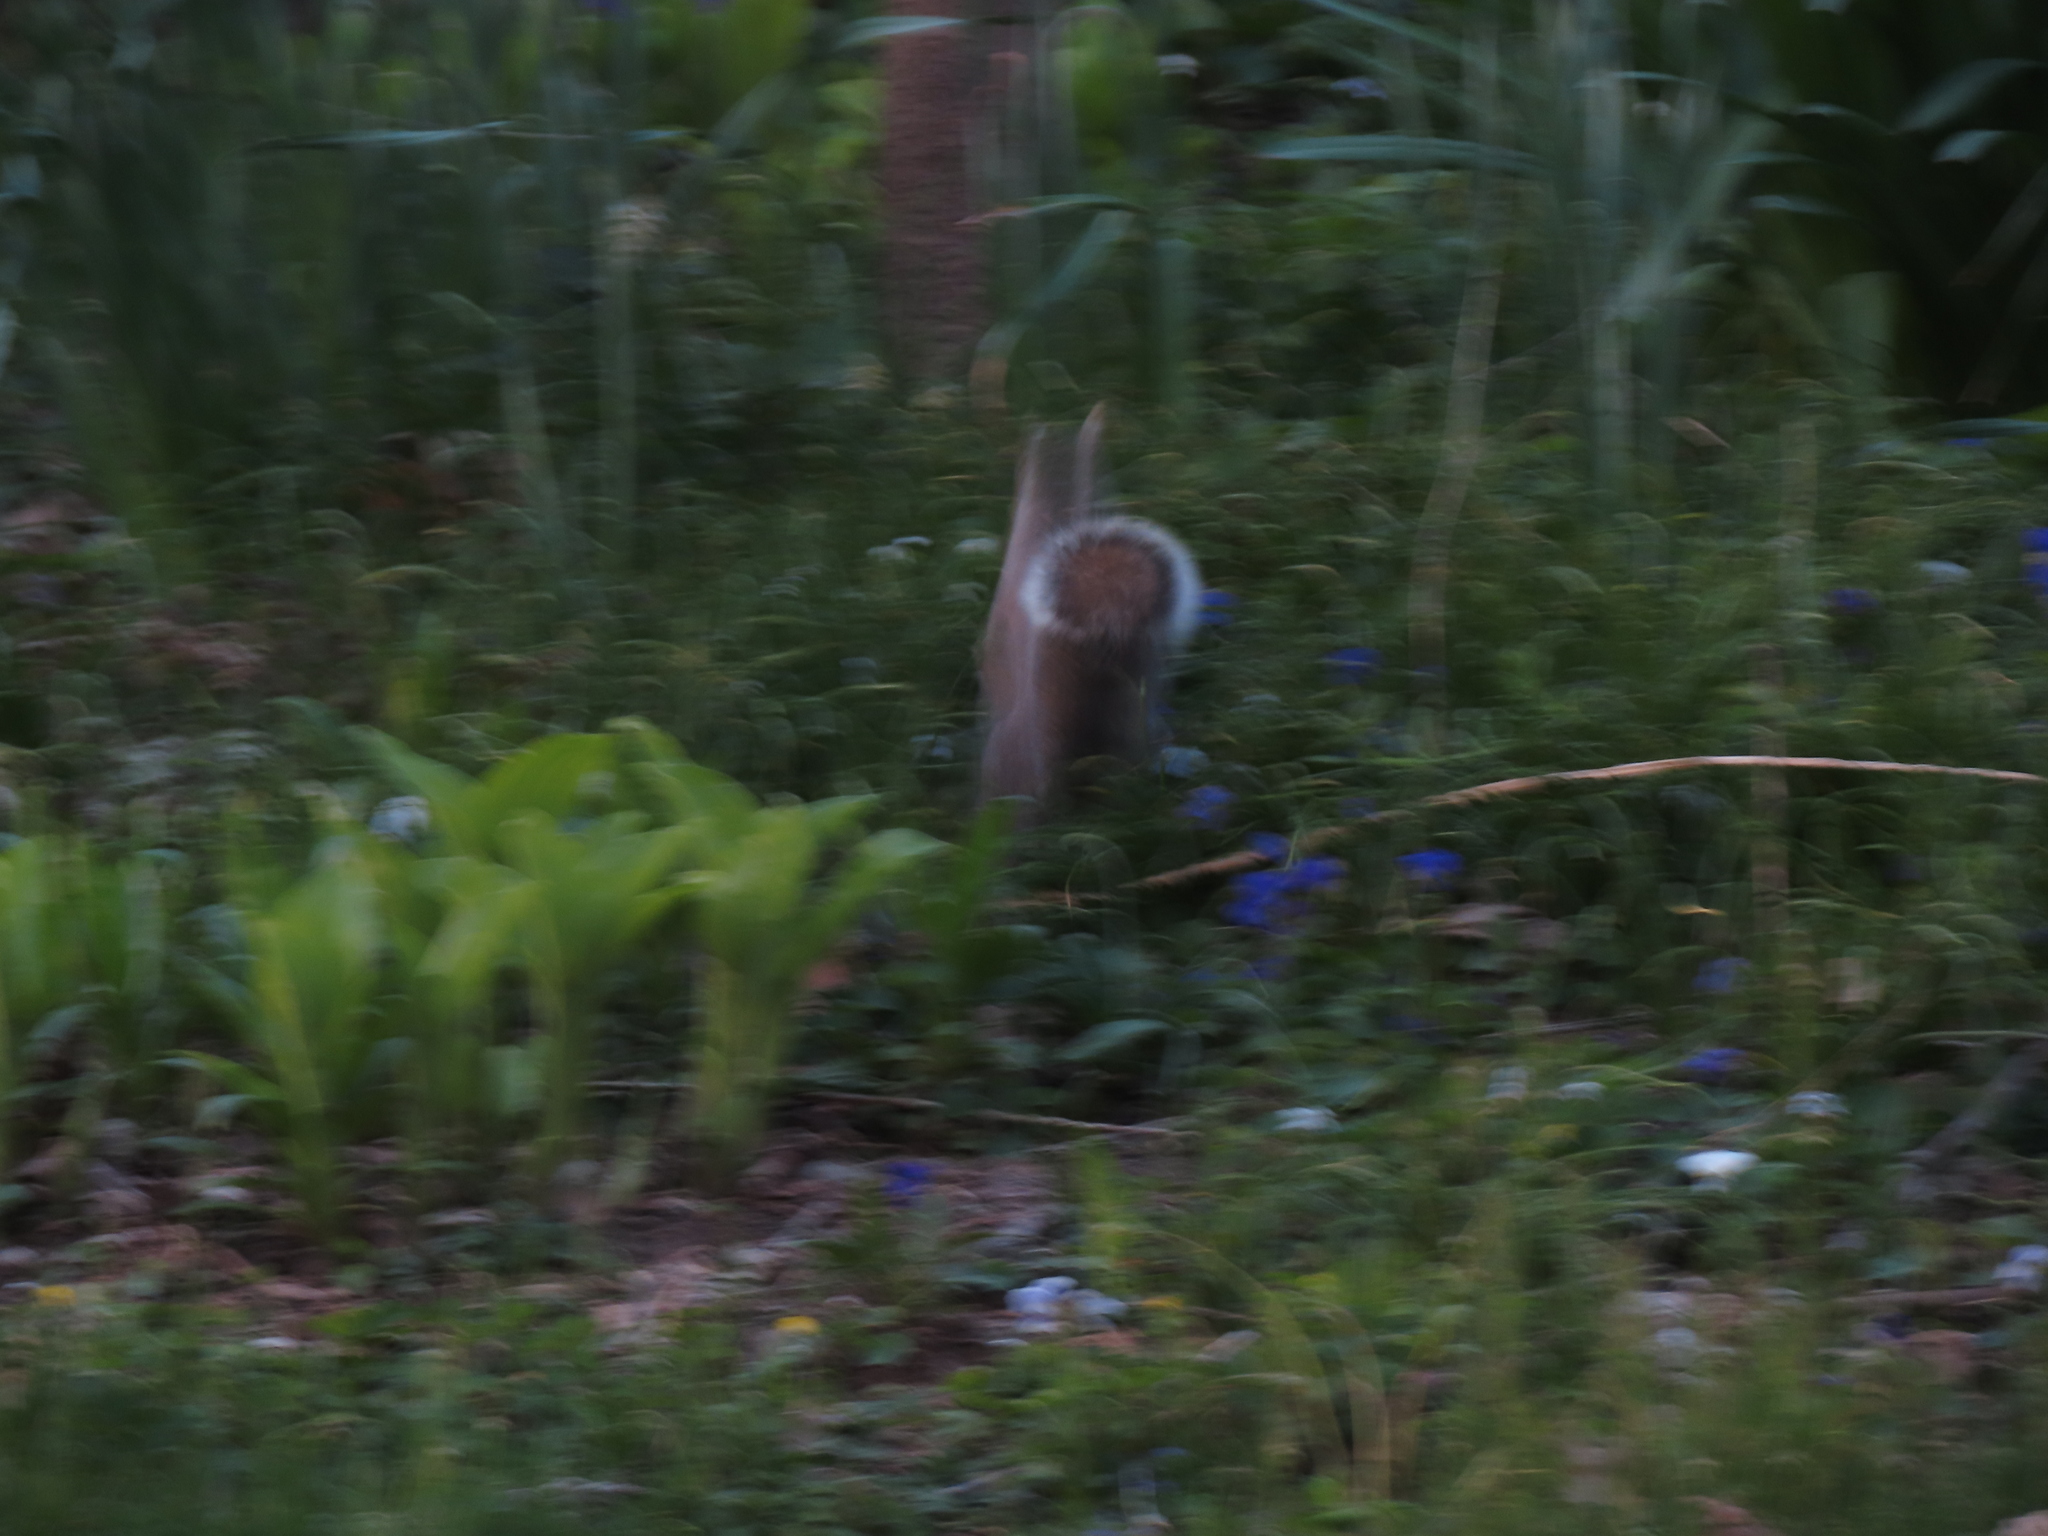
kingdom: Animalia
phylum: Chordata
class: Mammalia
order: Rodentia
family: Sciuridae
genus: Sciurus
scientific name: Sciurus carolinensis
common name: Eastern gray squirrel
